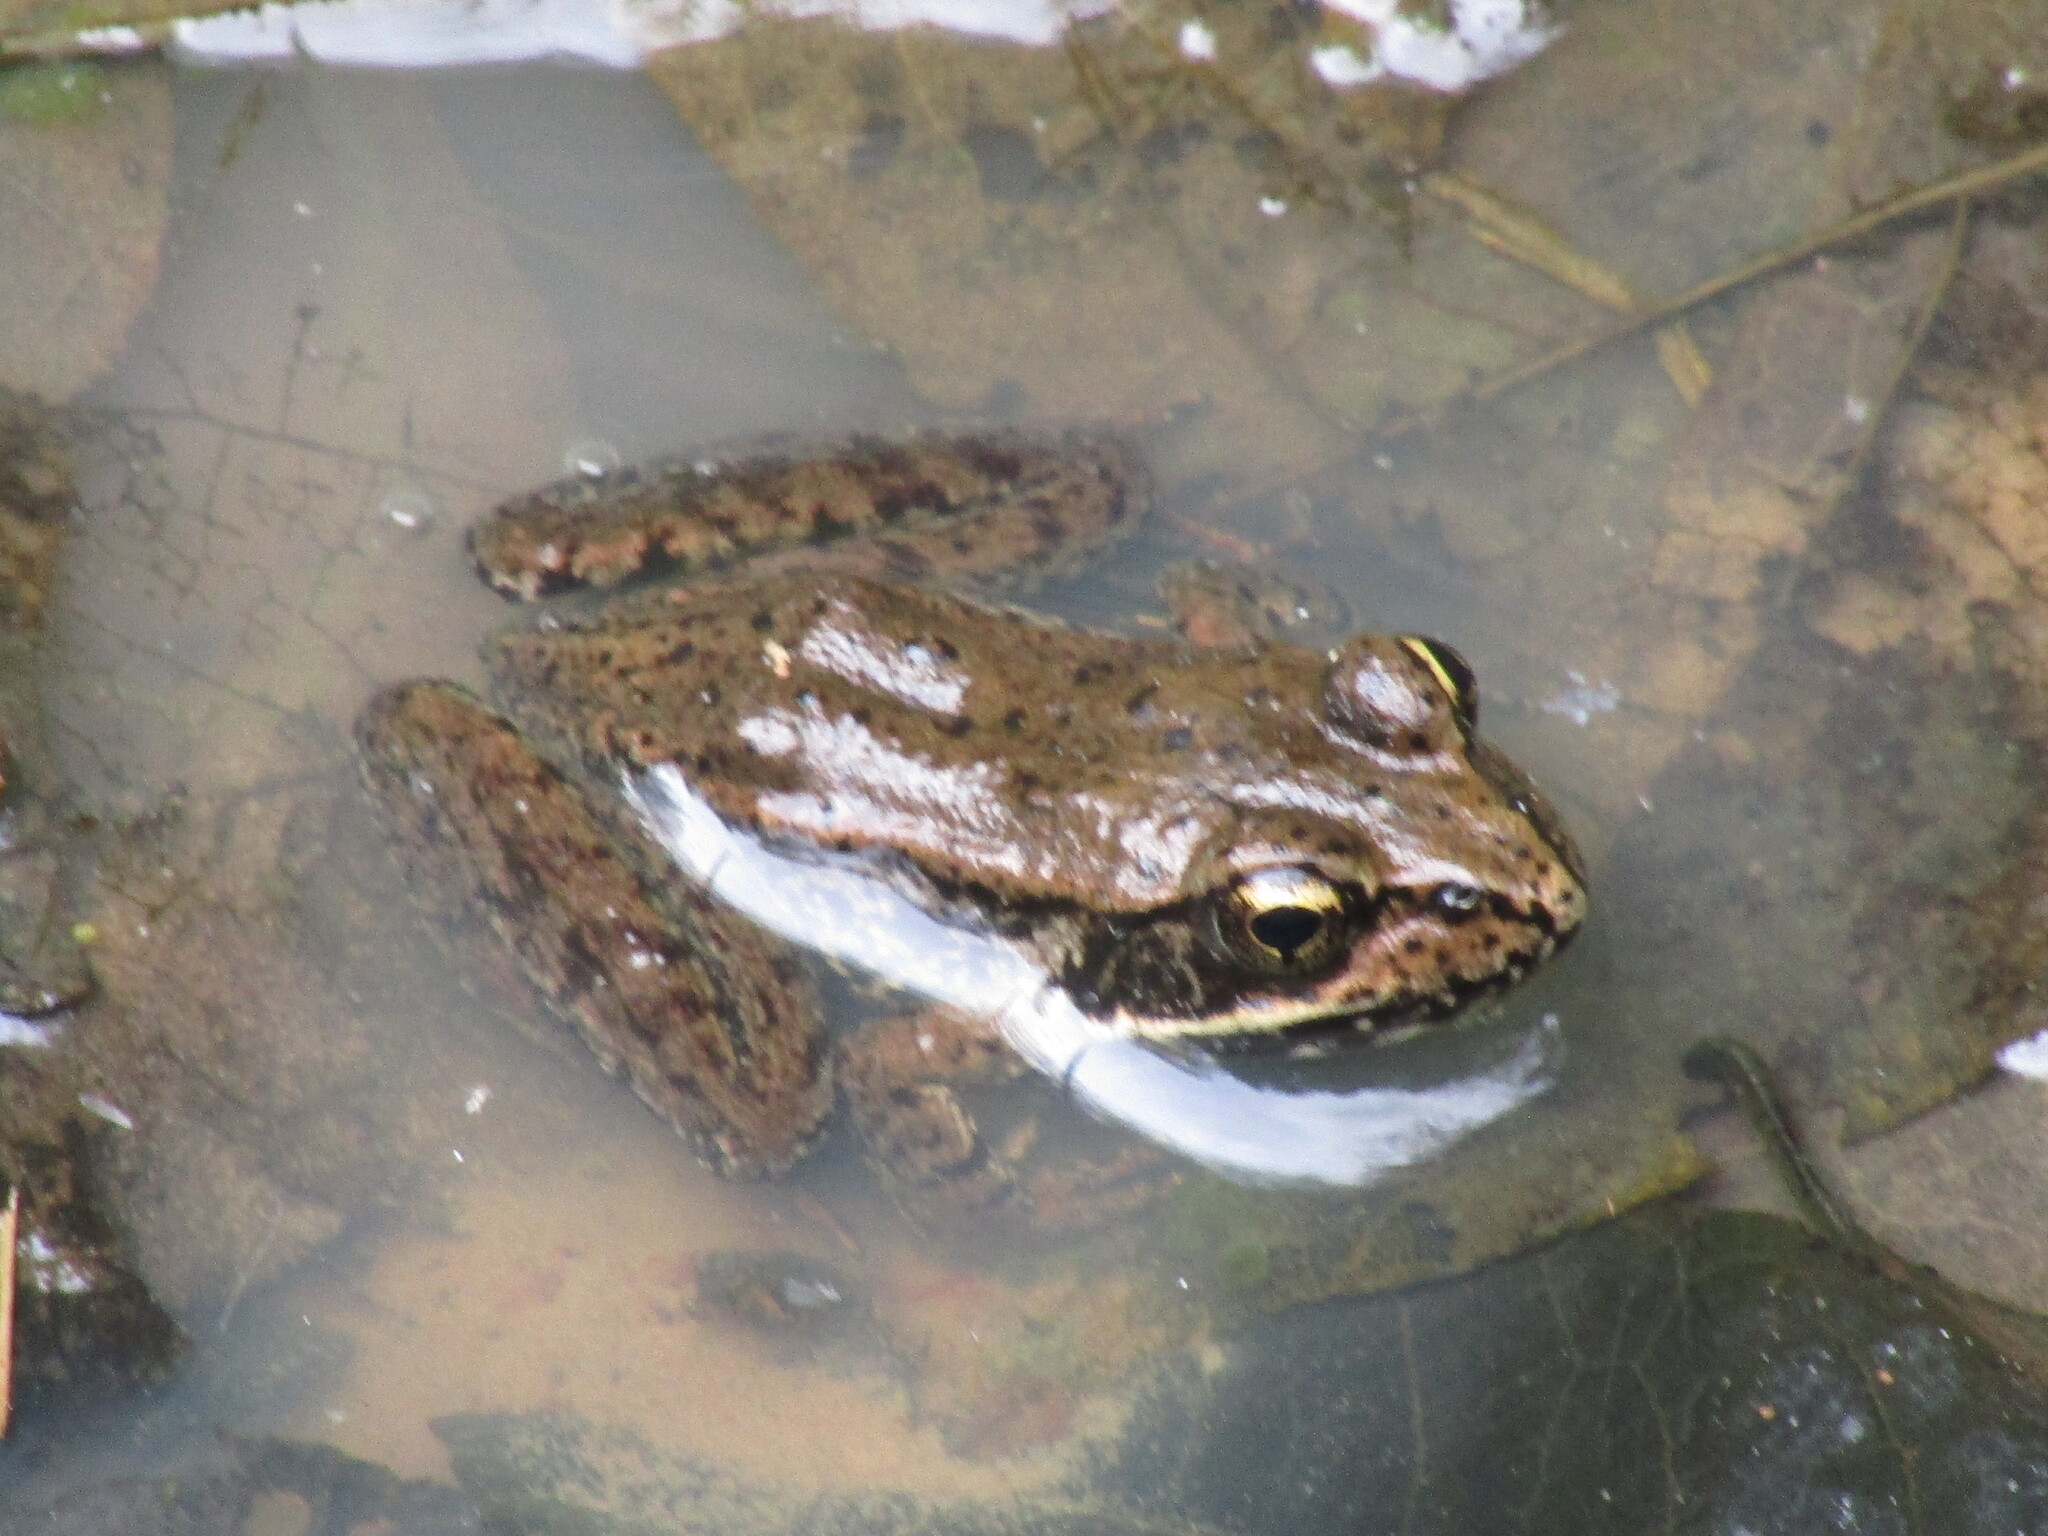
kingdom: Animalia
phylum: Chordata
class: Amphibia
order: Anura
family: Ranidae
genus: Rana
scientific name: Rana aurora
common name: Red-legged frog
